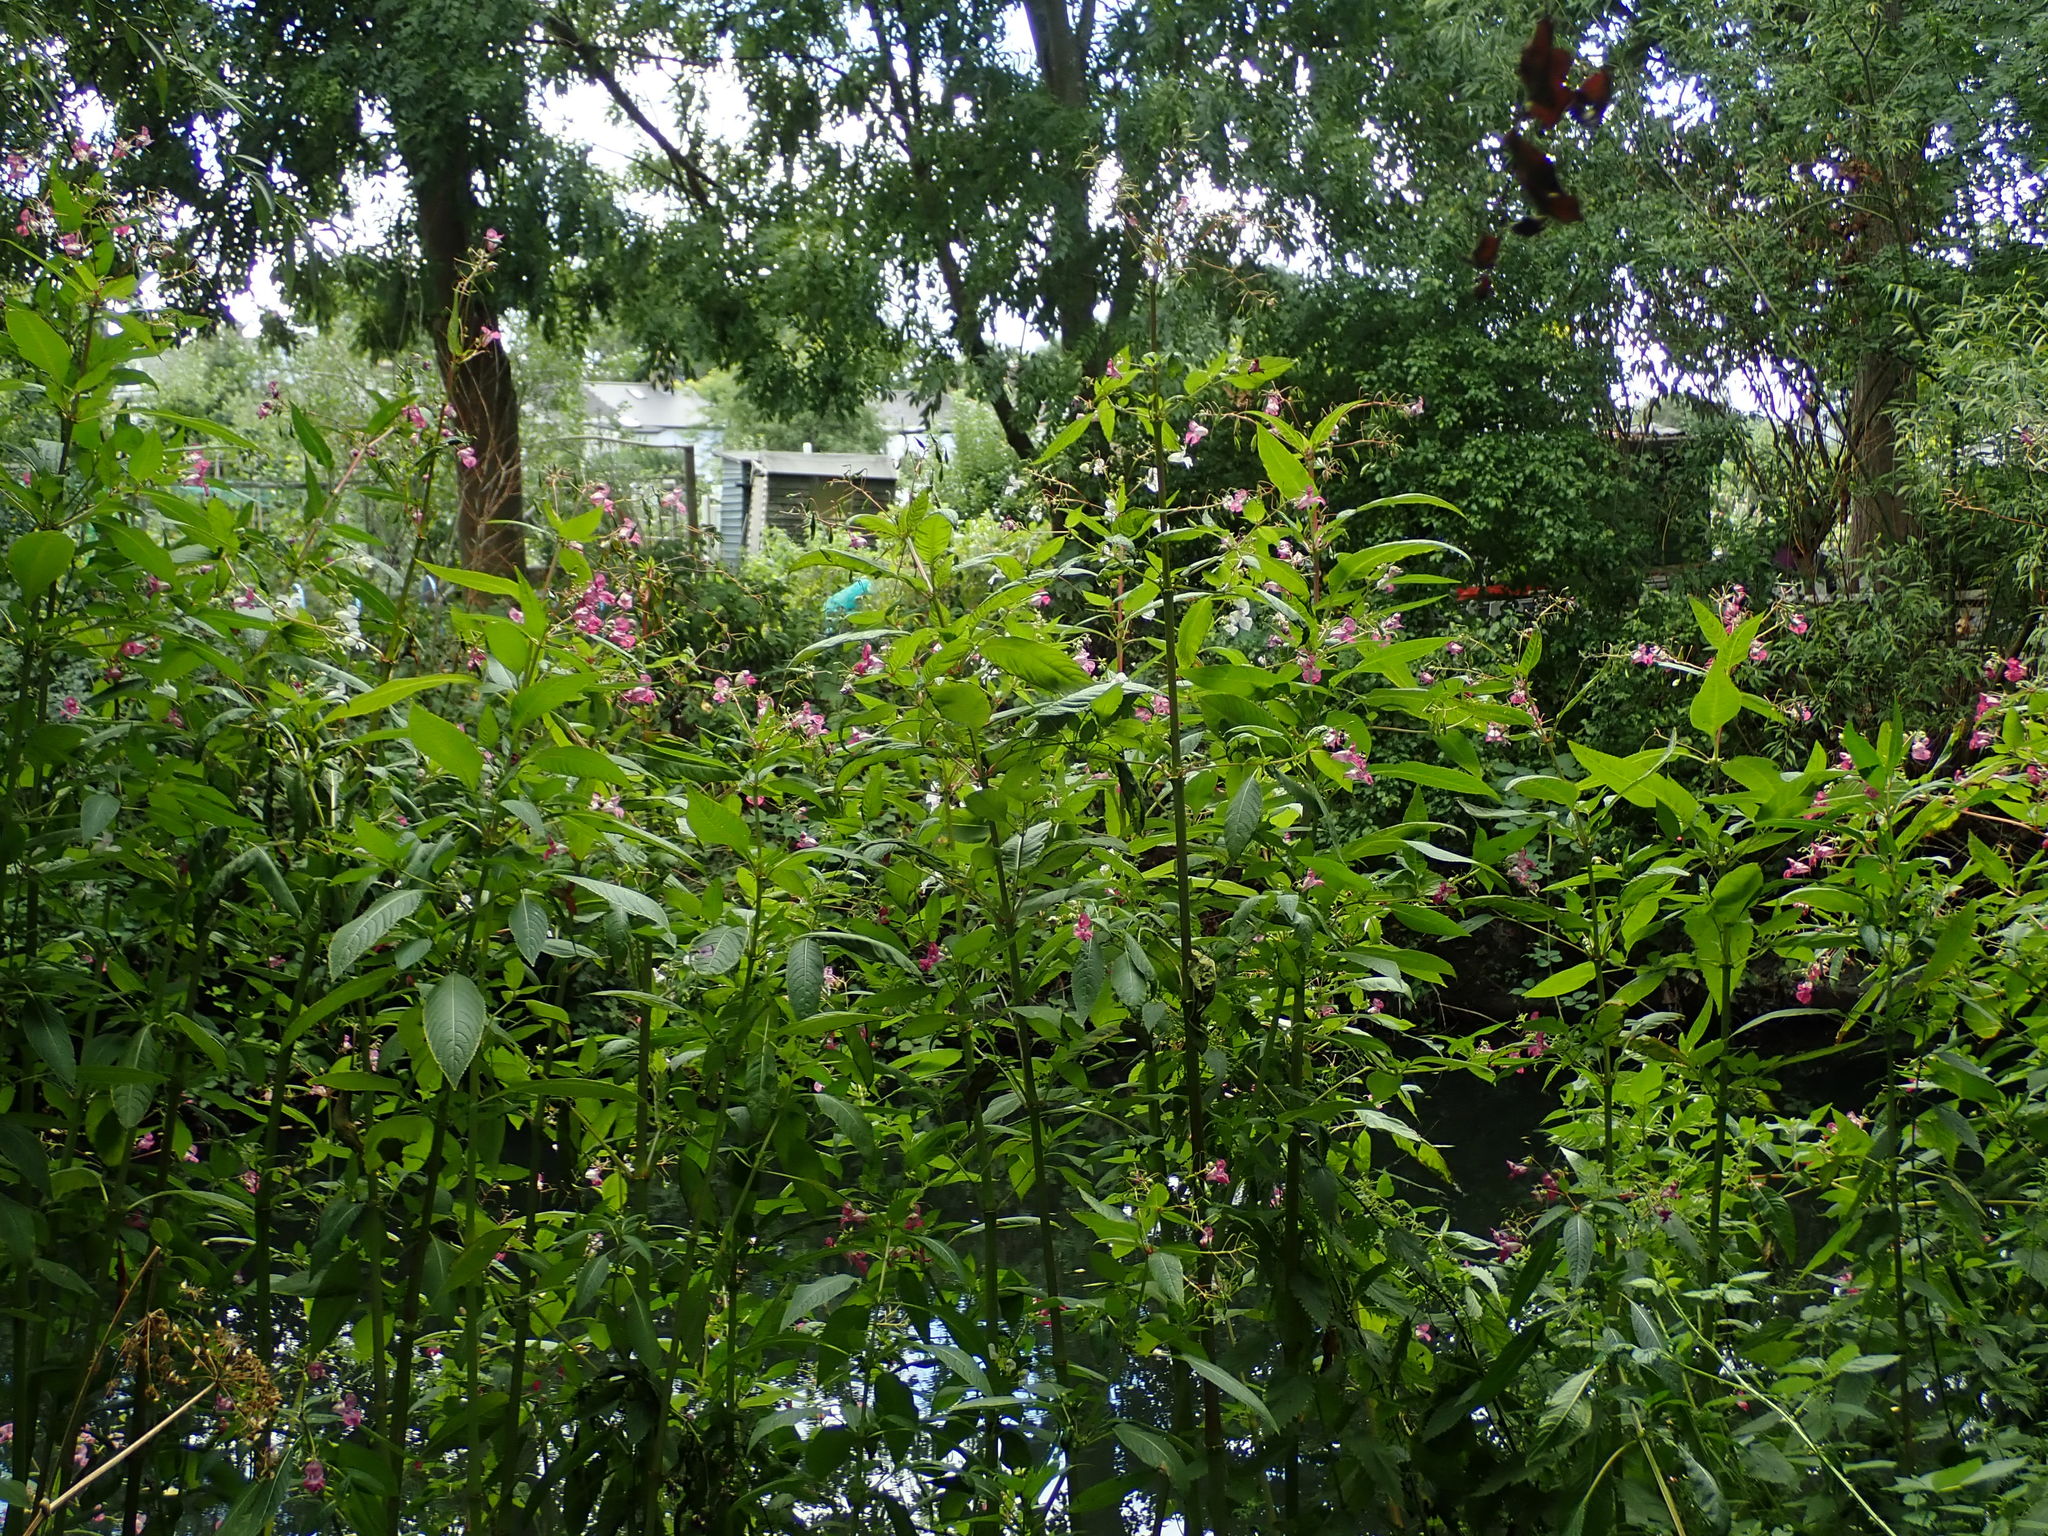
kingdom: Plantae
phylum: Tracheophyta
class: Magnoliopsida
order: Ericales
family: Balsaminaceae
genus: Impatiens
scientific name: Impatiens glandulifera
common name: Himalayan balsam
